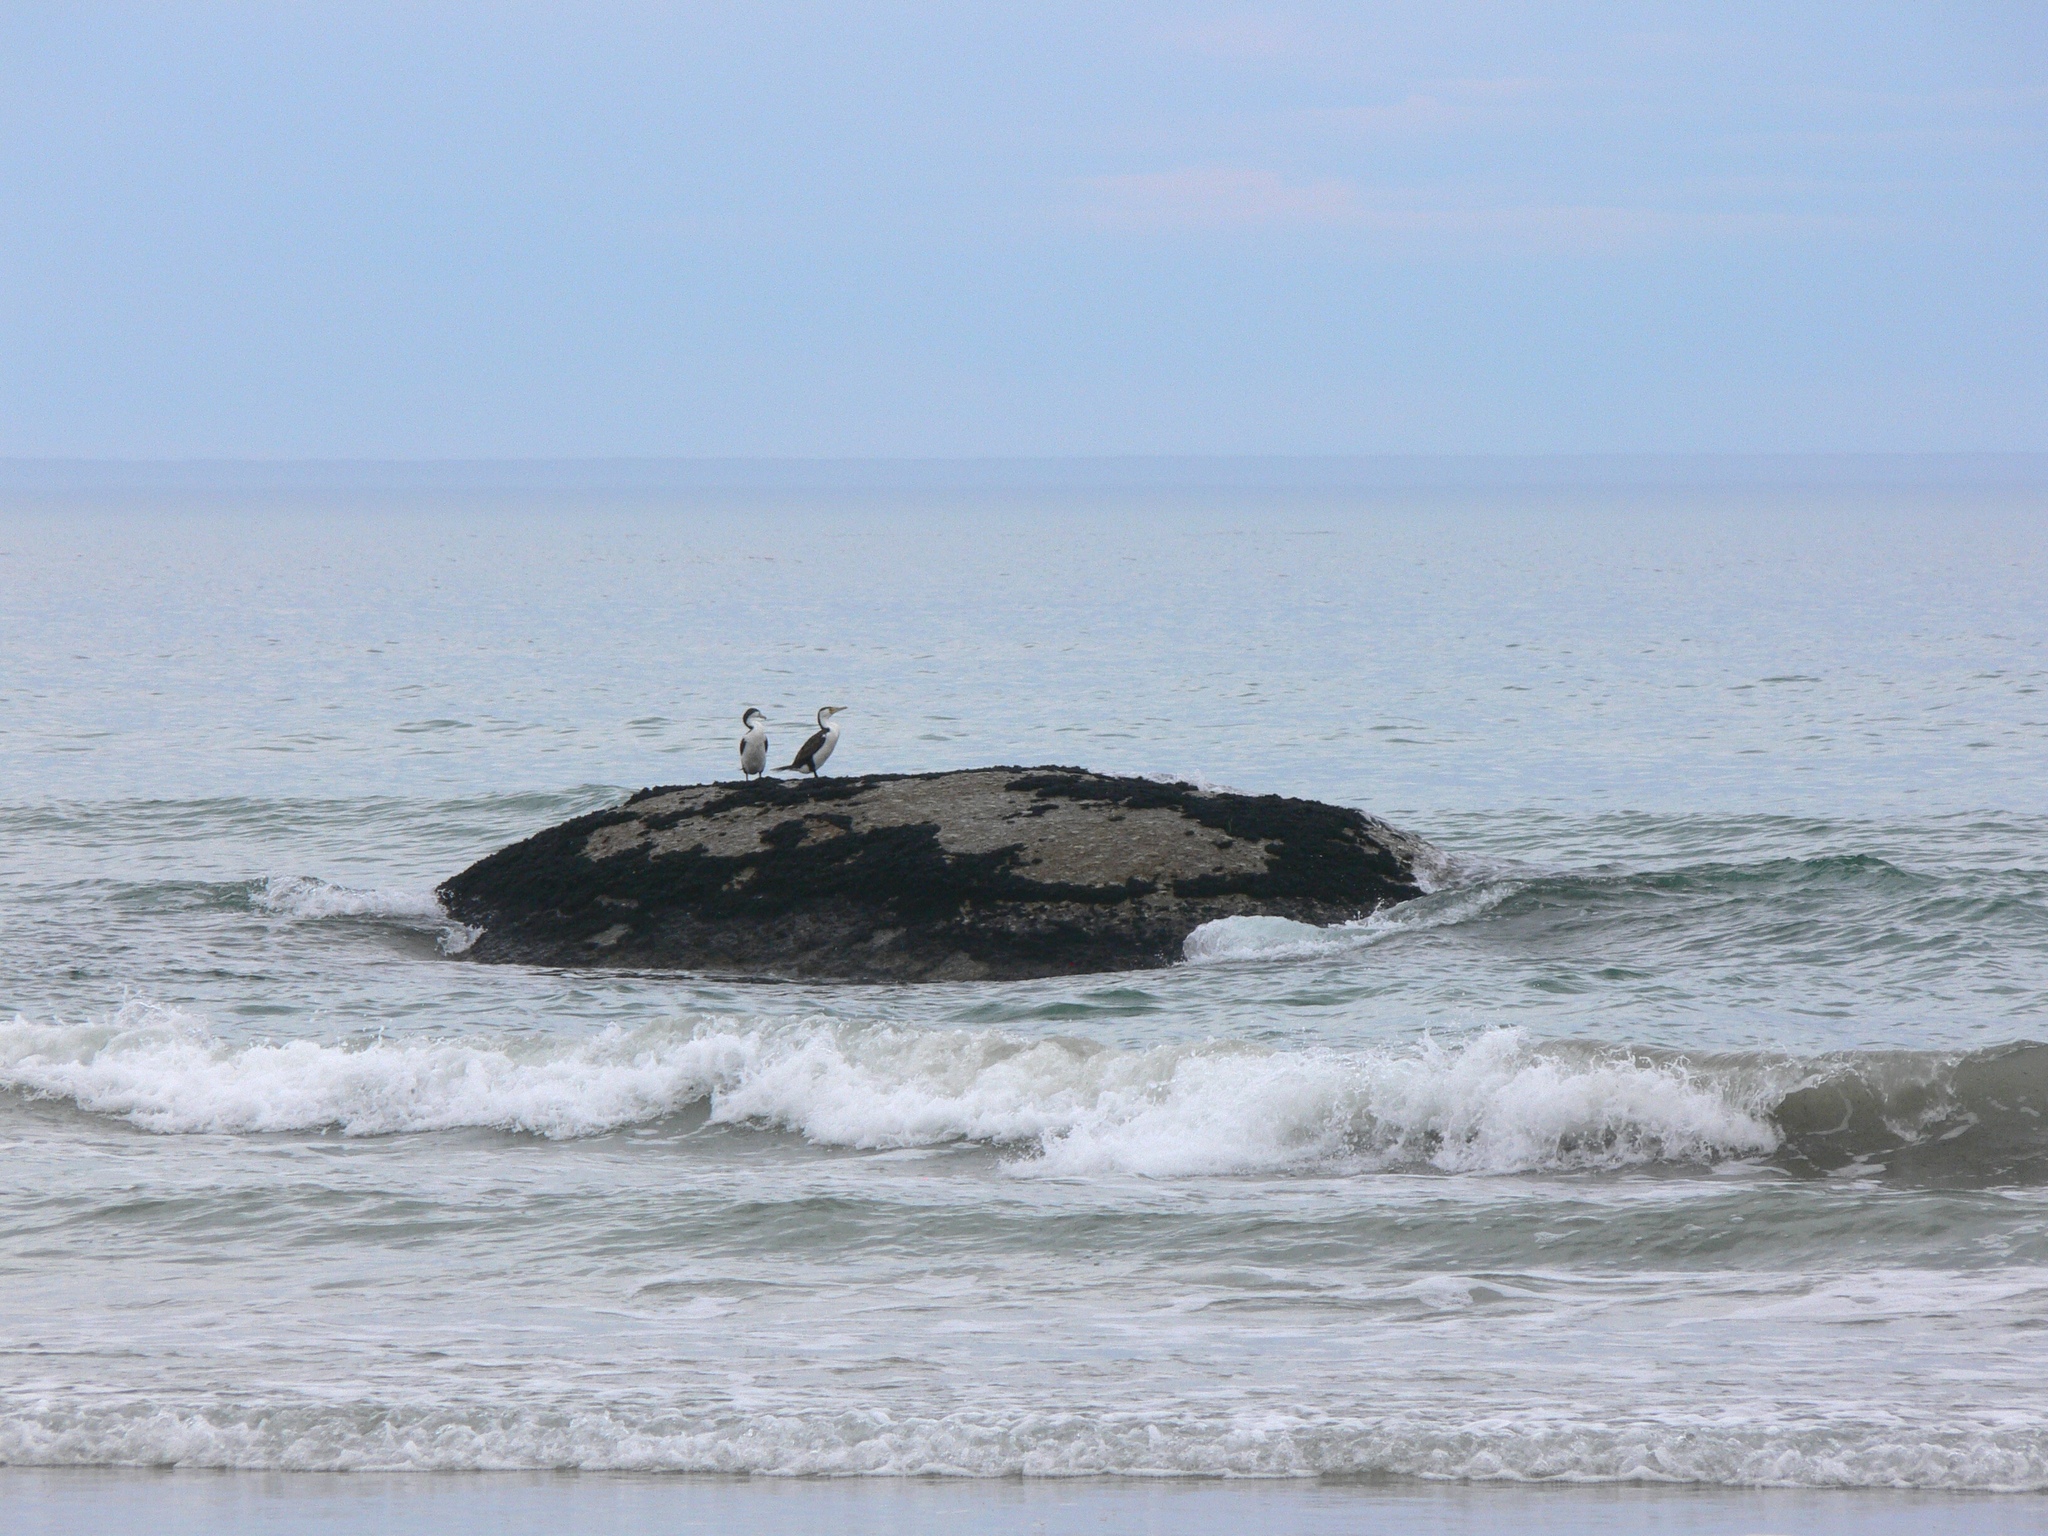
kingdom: Animalia
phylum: Chordata
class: Aves
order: Suliformes
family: Phalacrocoracidae
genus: Phalacrocorax
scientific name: Phalacrocorax varius
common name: Pied cormorant
